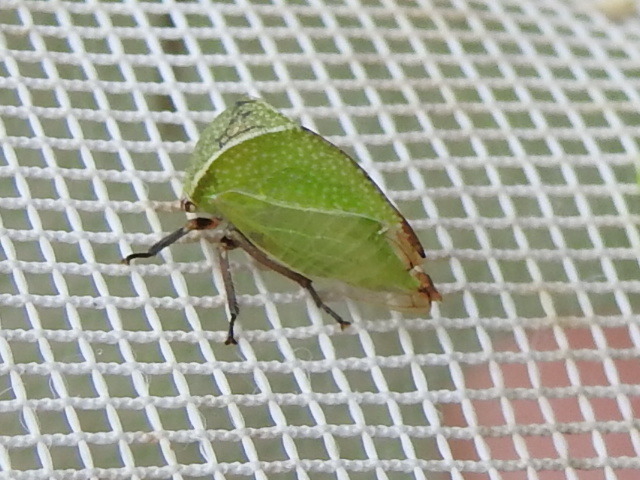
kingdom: Animalia
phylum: Arthropoda
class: Insecta
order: Hemiptera
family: Membracidae
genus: Tortistilus
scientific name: Tortistilus inermis
